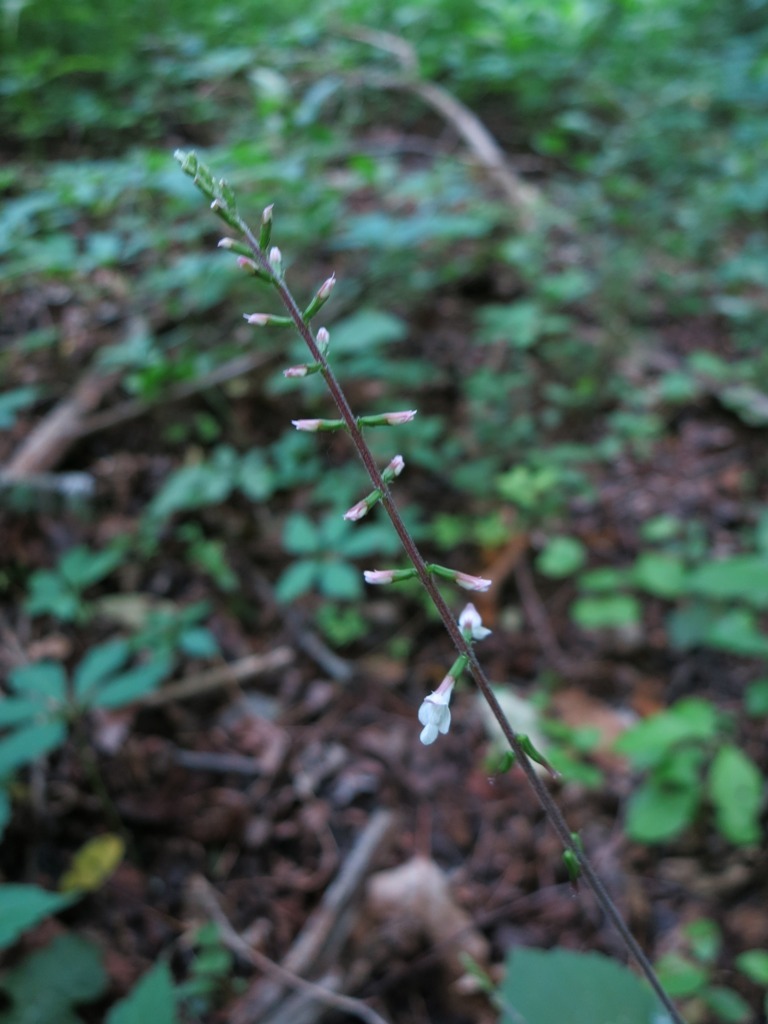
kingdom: Plantae
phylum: Tracheophyta
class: Magnoliopsida
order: Lamiales
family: Phrymaceae
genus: Phryma
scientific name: Phryma leptostachya
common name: American lopseed
